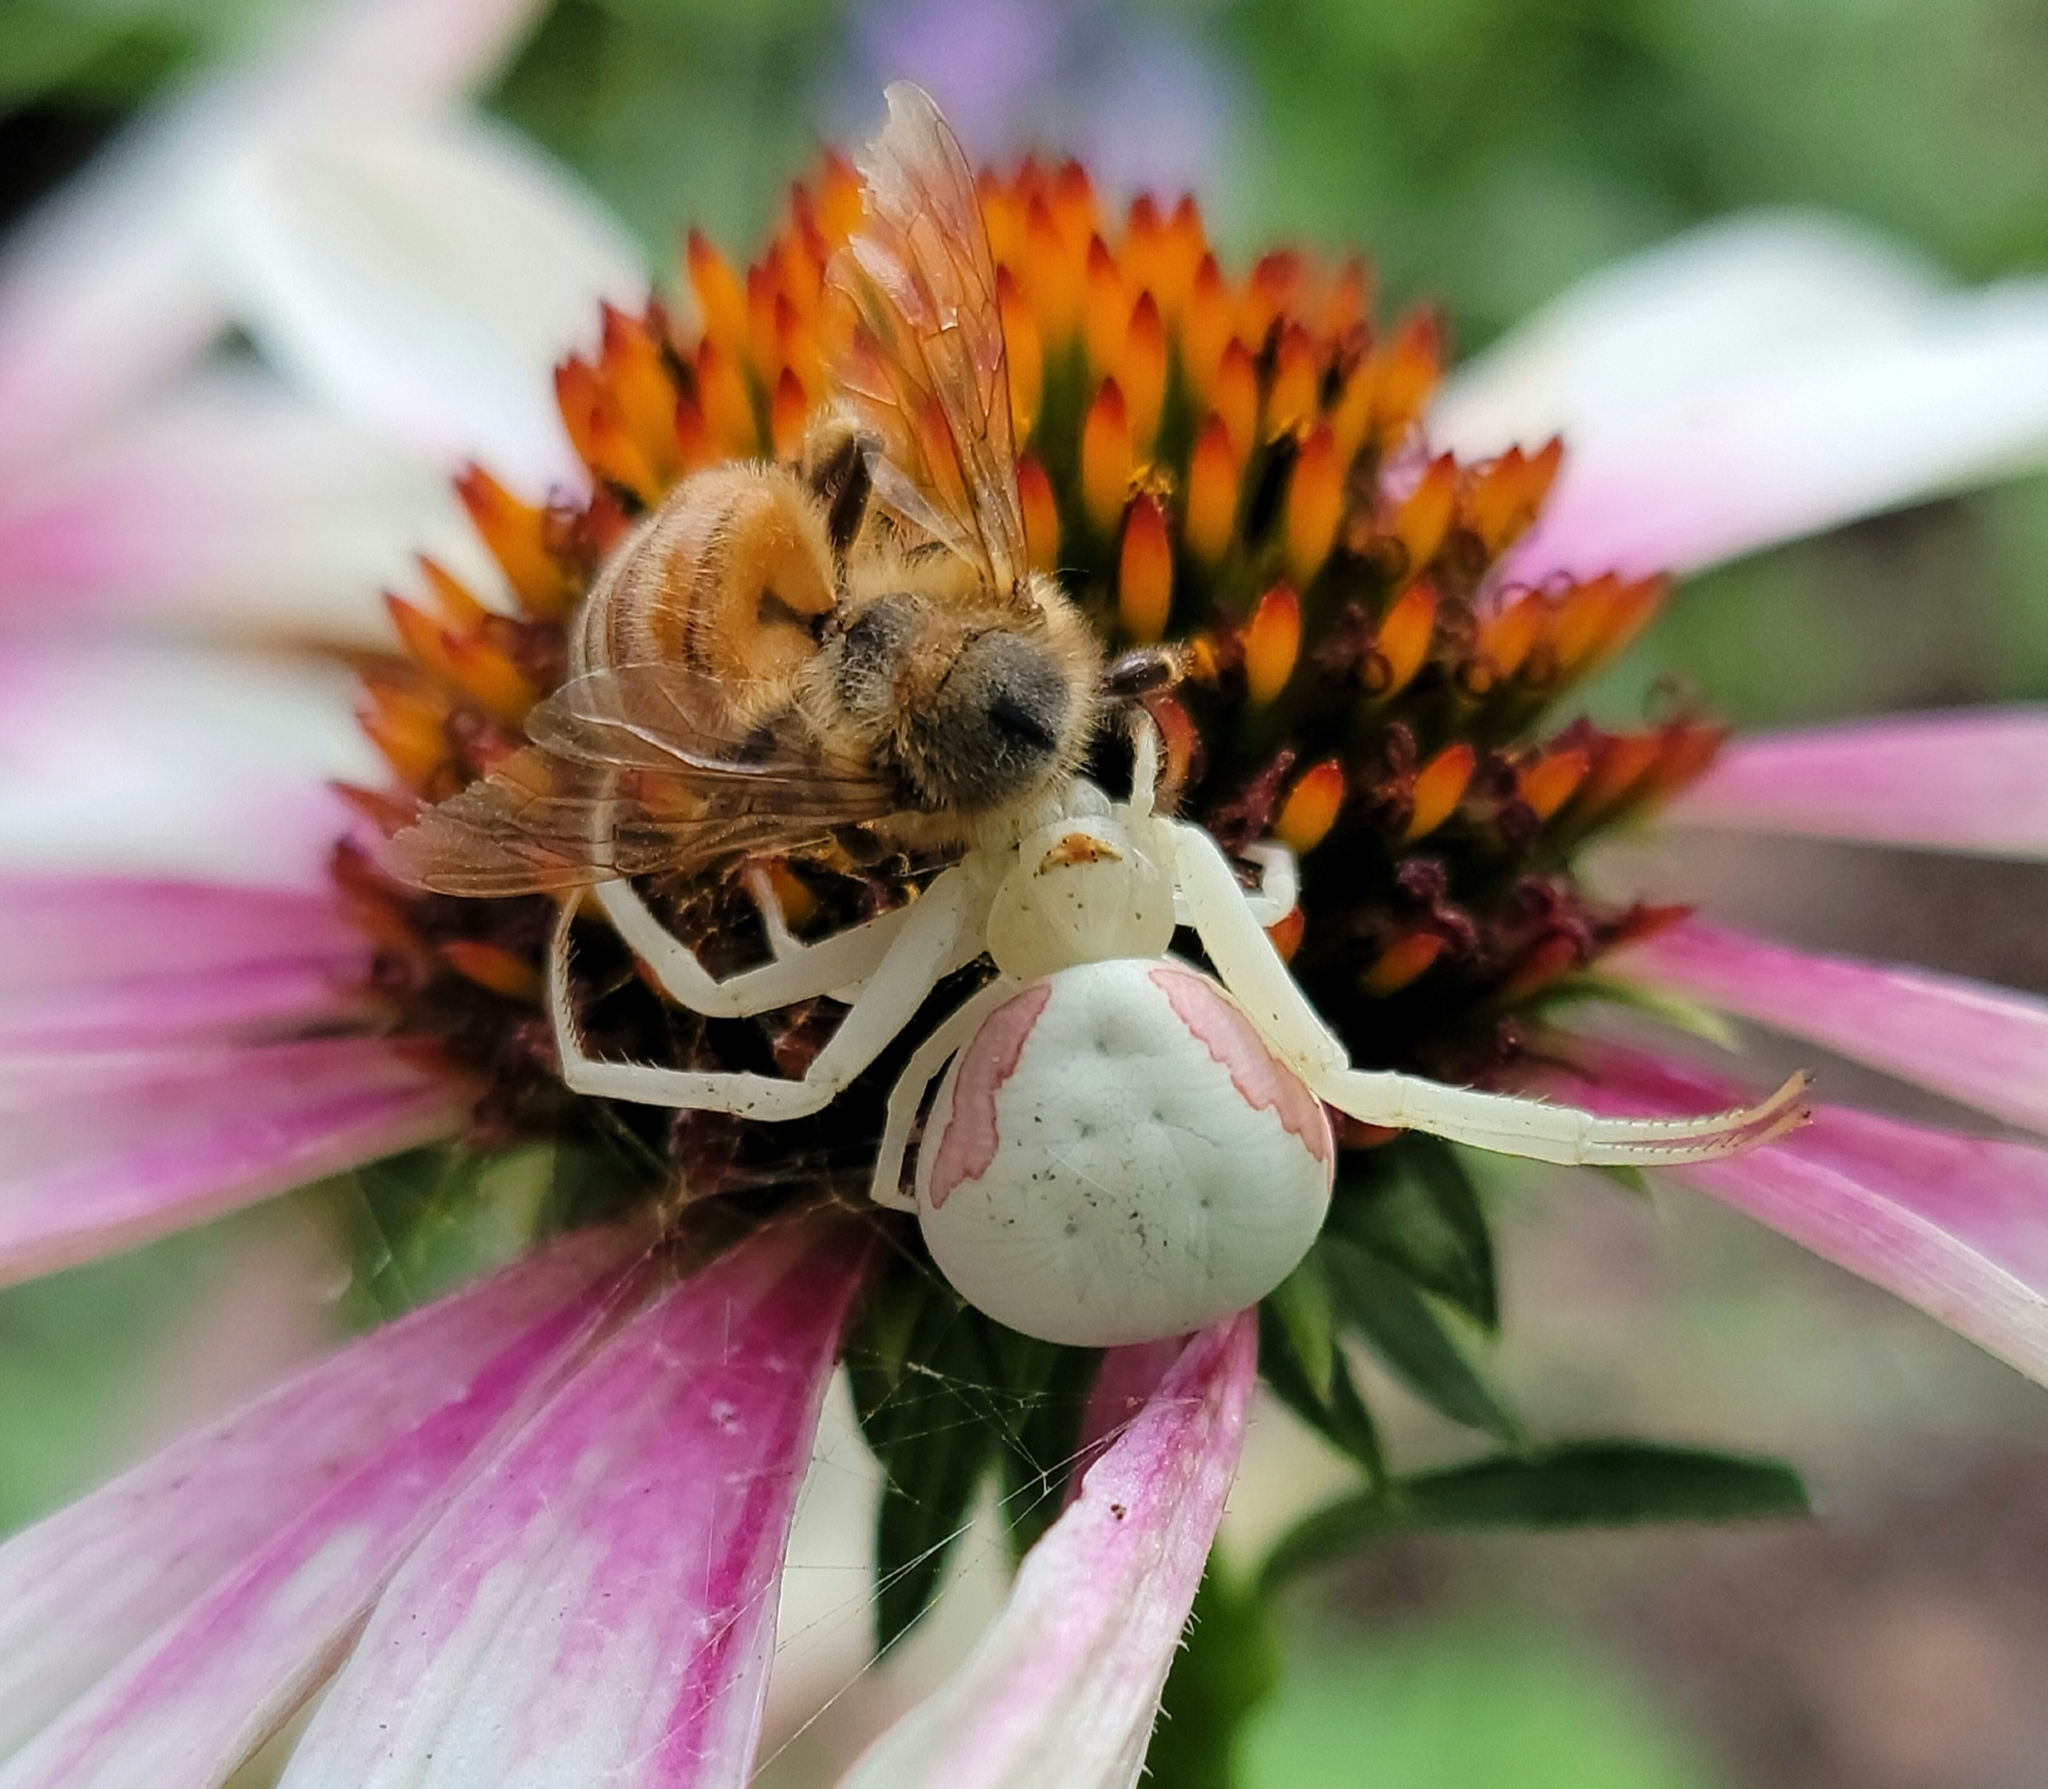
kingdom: Animalia
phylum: Arthropoda
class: Arachnida
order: Araneae
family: Thomisidae
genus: Misumena
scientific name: Misumena vatia
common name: Goldenrod crab spider
